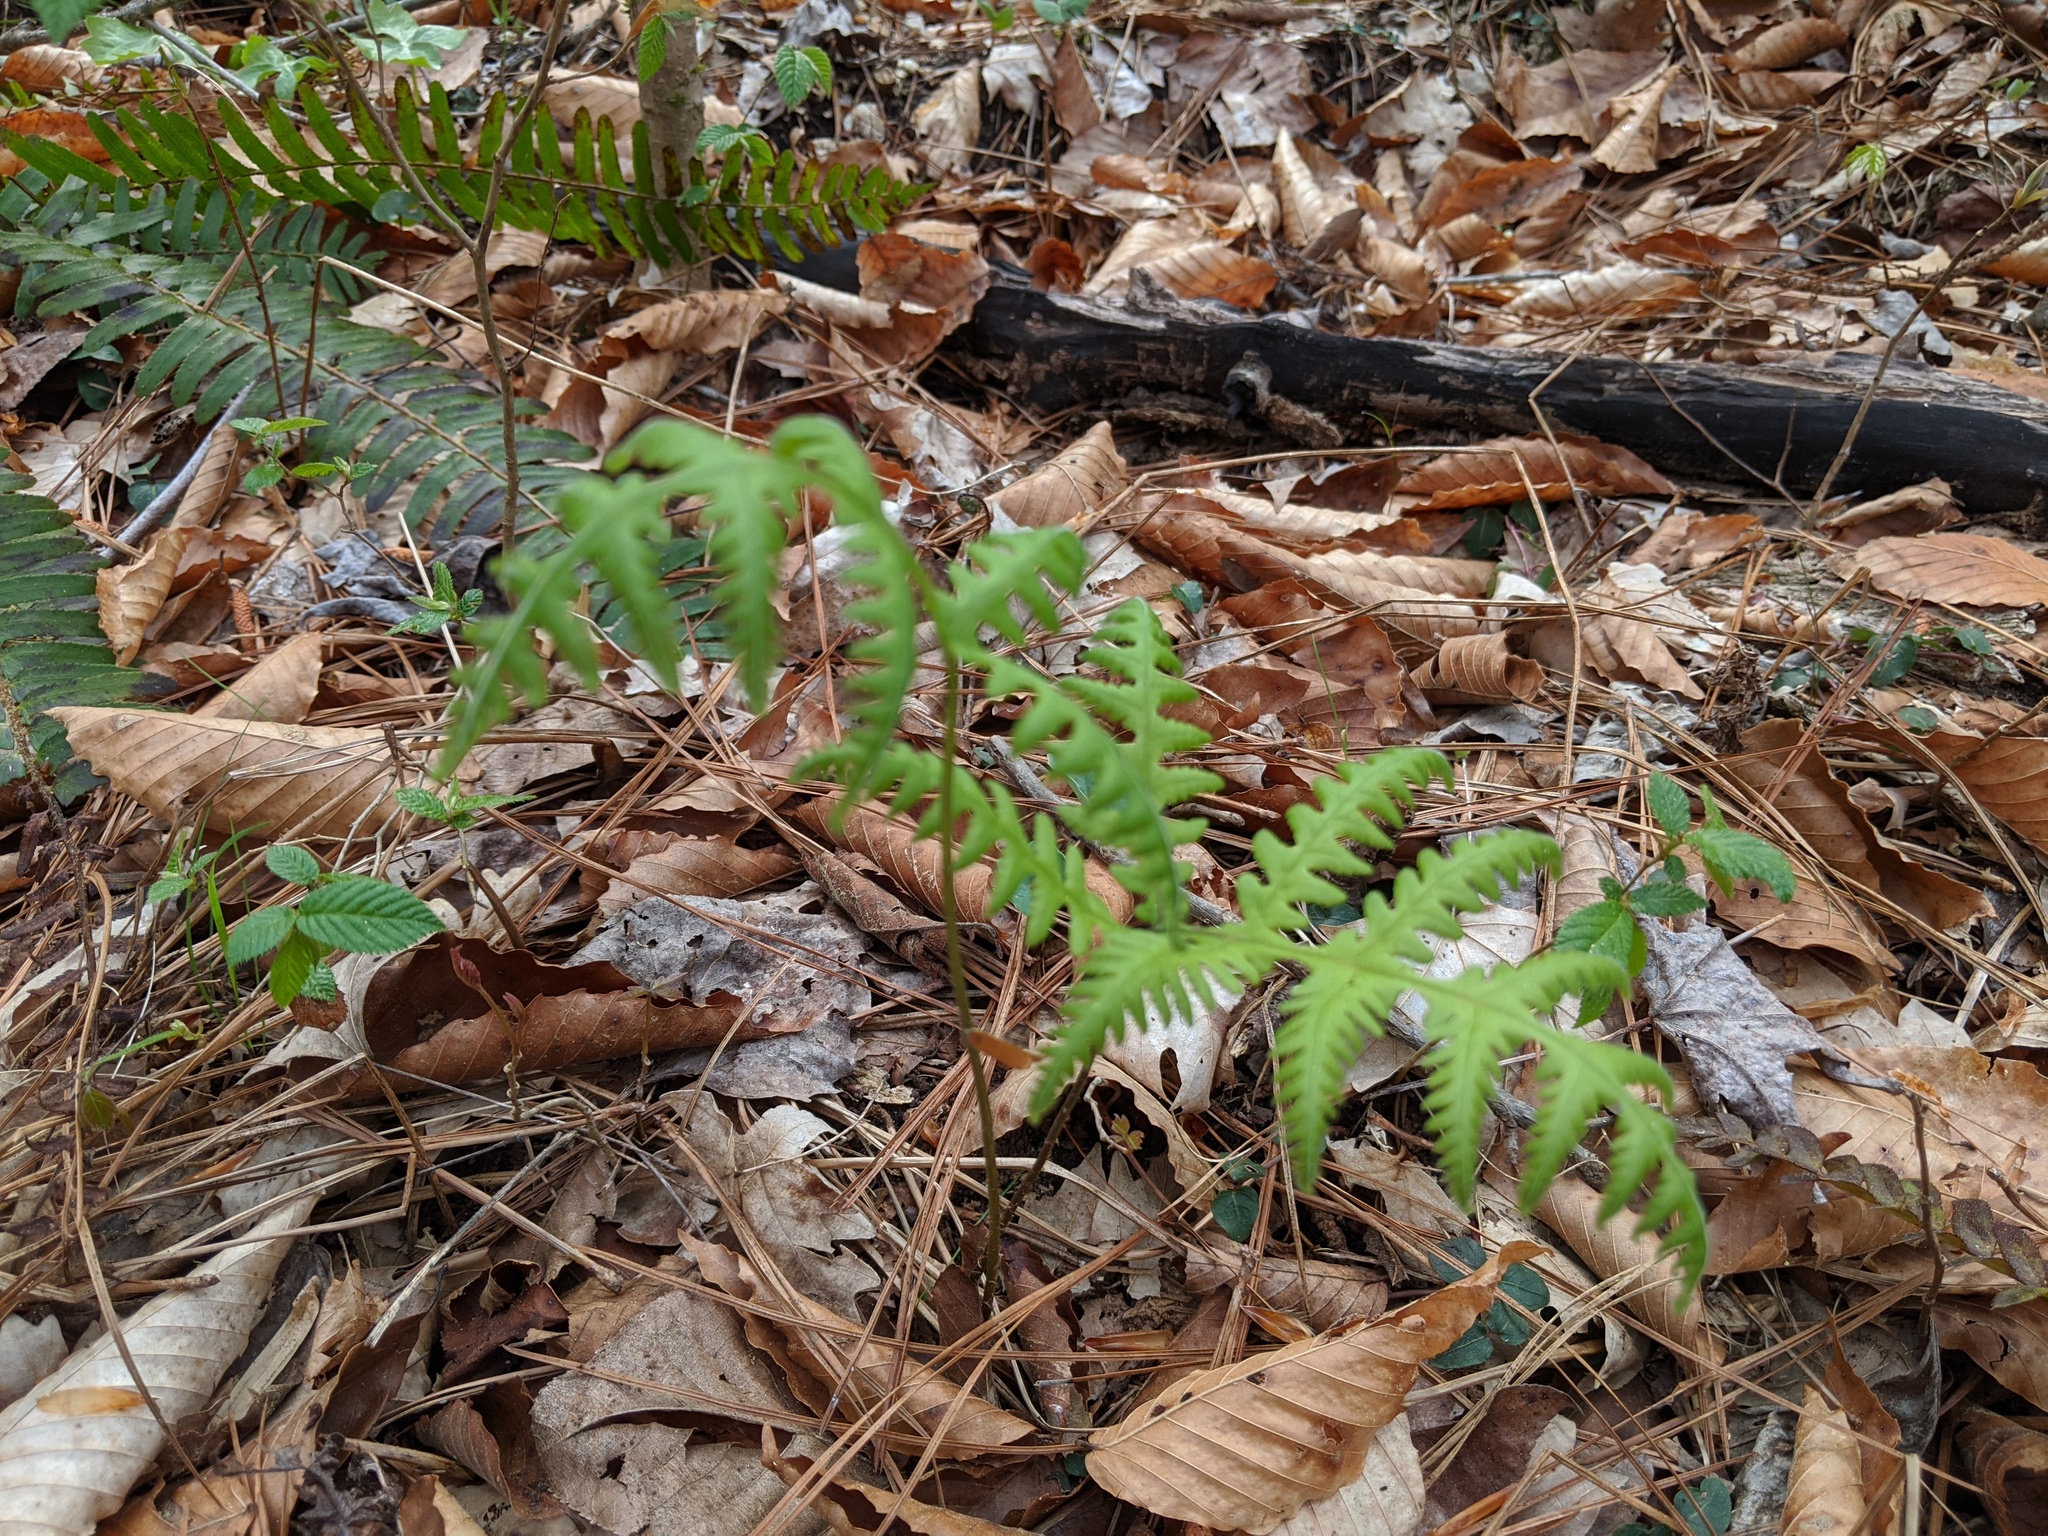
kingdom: Plantae
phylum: Tracheophyta
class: Polypodiopsida
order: Polypodiales
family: Thelypteridaceae
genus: Phegopteris
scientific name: Phegopteris hexagonoptera
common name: Broad beech fern
